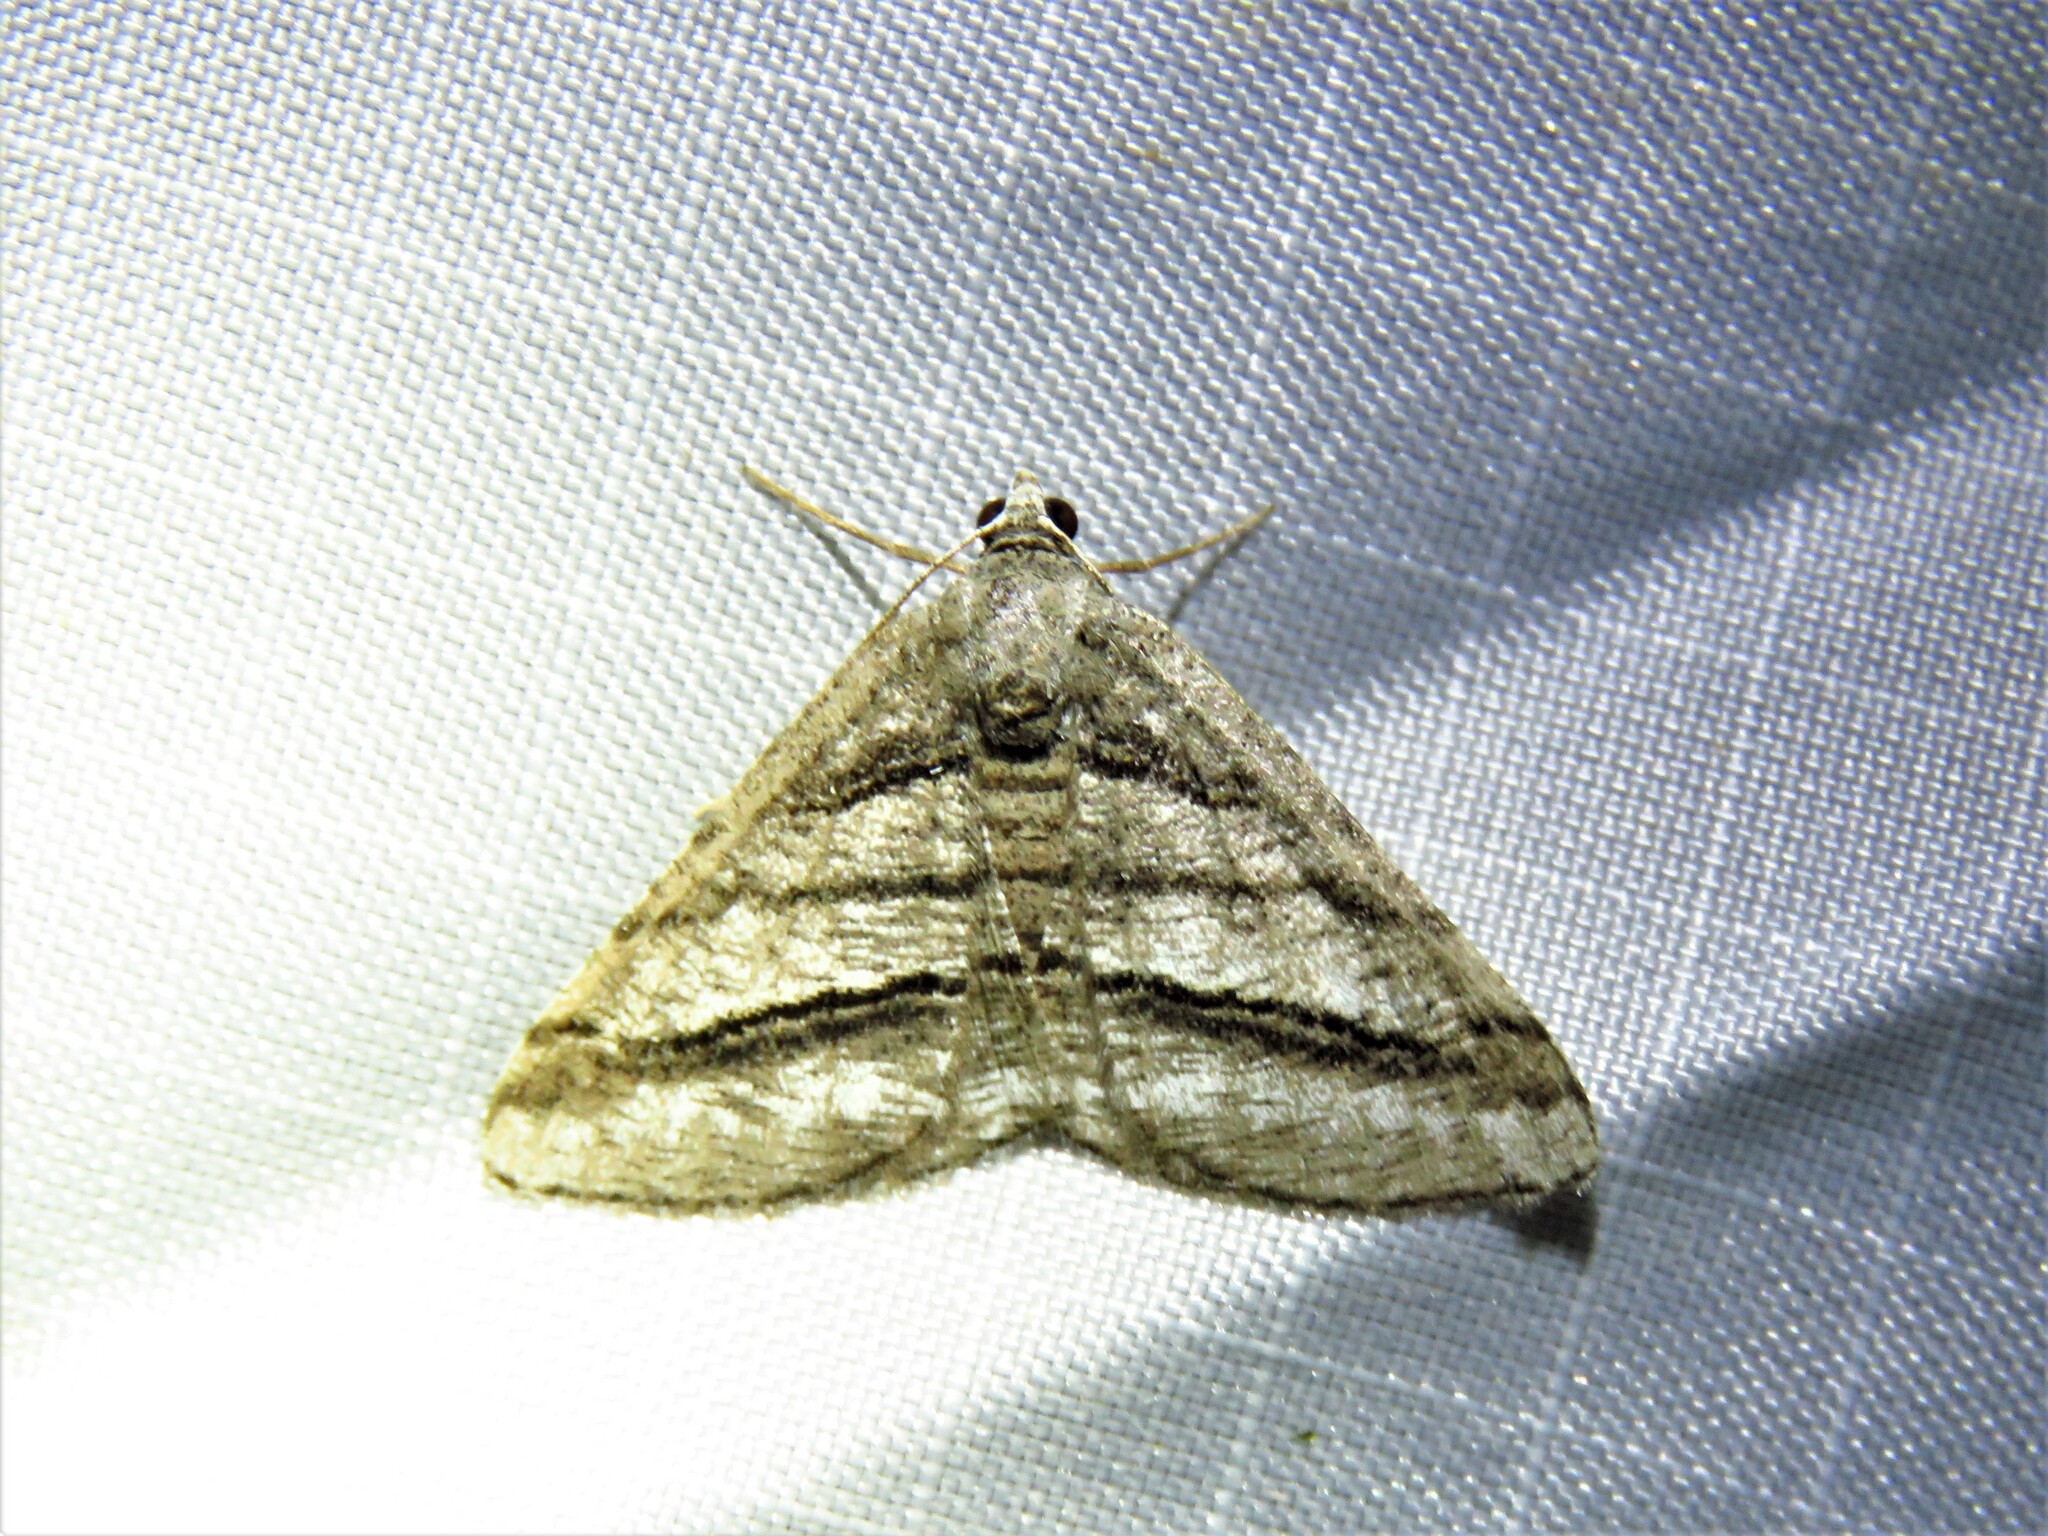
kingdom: Animalia
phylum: Arthropoda
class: Insecta
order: Lepidoptera
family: Geometridae
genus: Digrammia
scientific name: Digrammia atrofasciata
